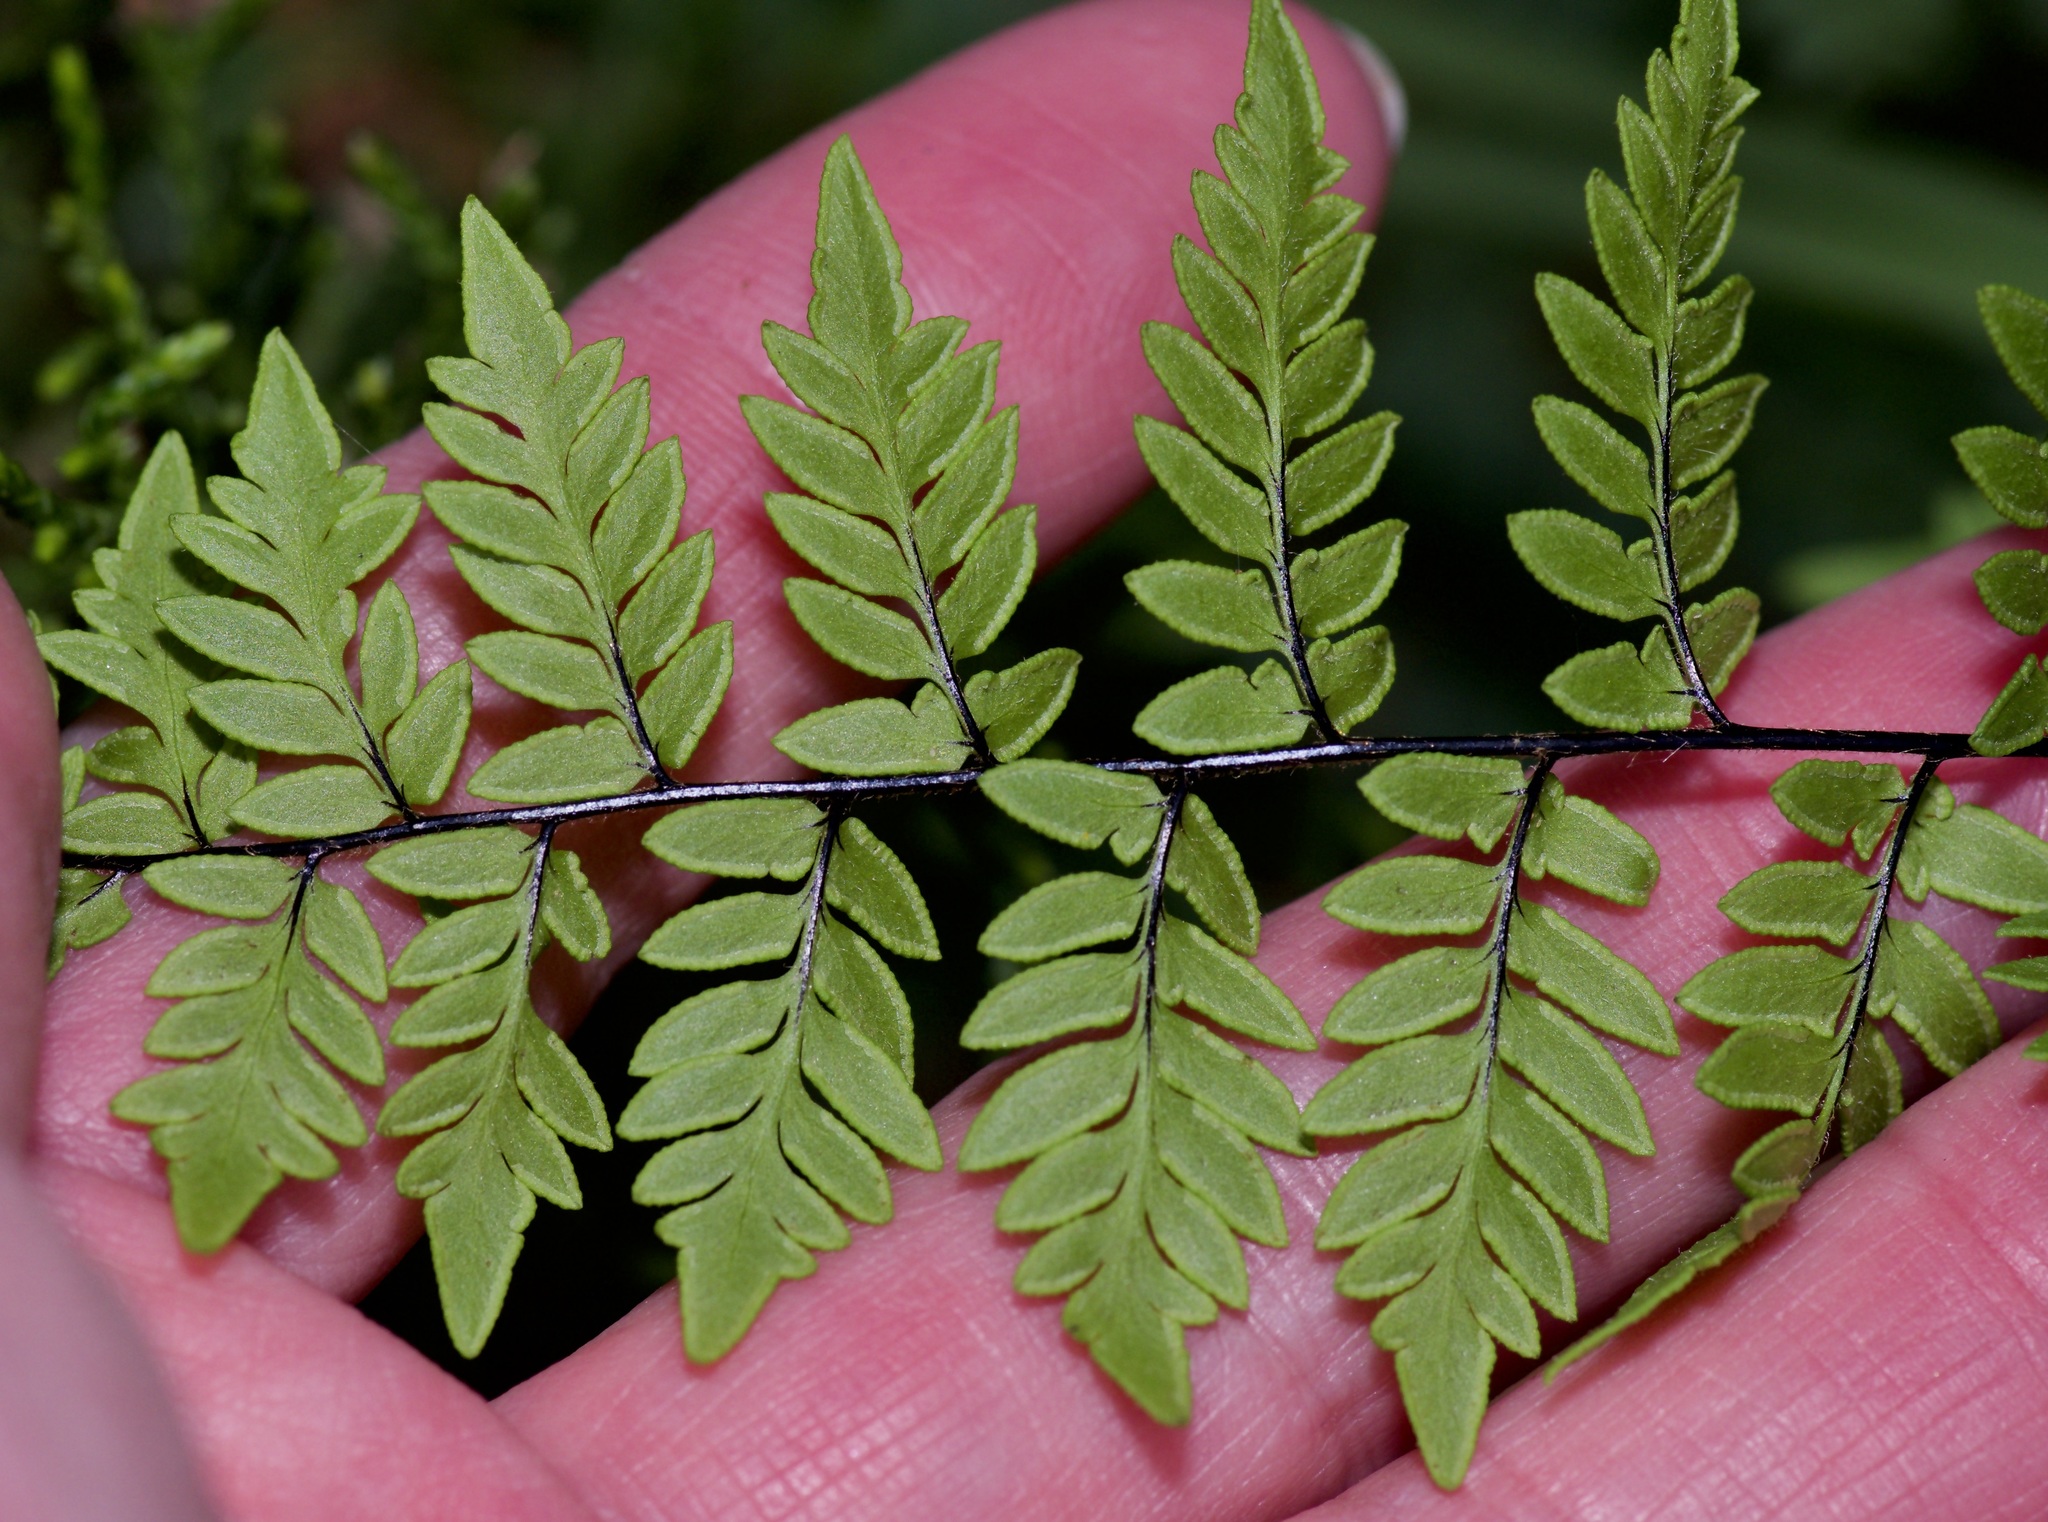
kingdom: Plantae
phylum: Tracheophyta
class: Polypodiopsida
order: Polypodiales
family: Pteridaceae
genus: Myriopteris
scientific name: Myriopteris alabamensis
